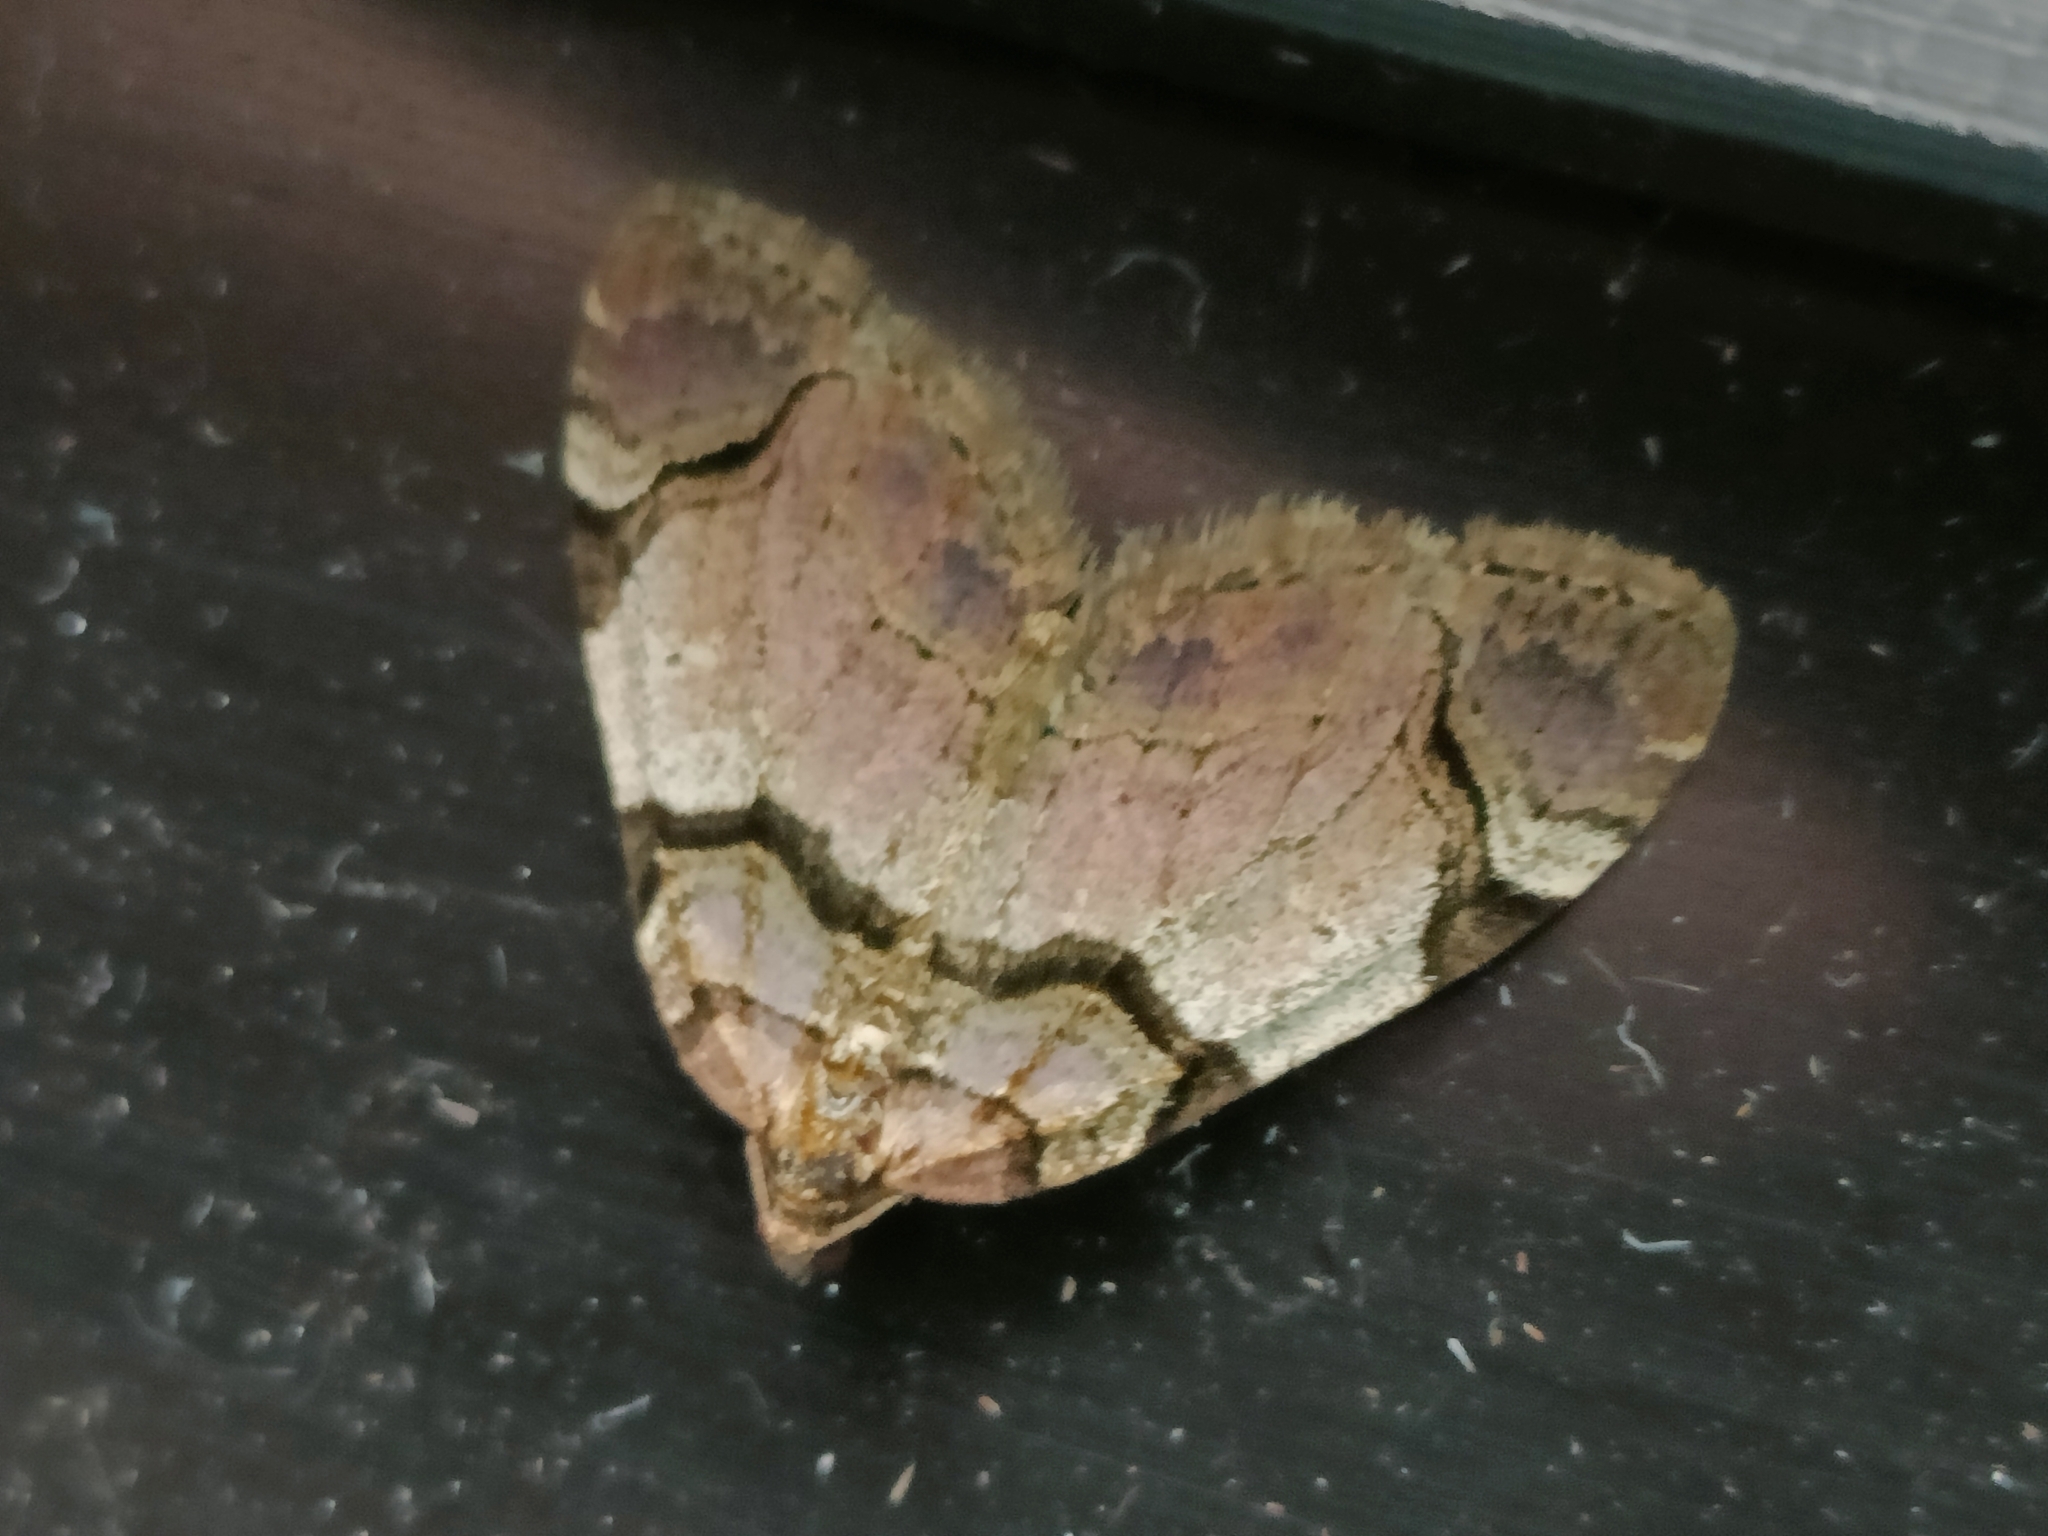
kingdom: Animalia
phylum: Arthropoda
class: Insecta
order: Lepidoptera
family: Geometridae
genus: Anticlea
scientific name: Anticlea derivata
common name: Streamer
